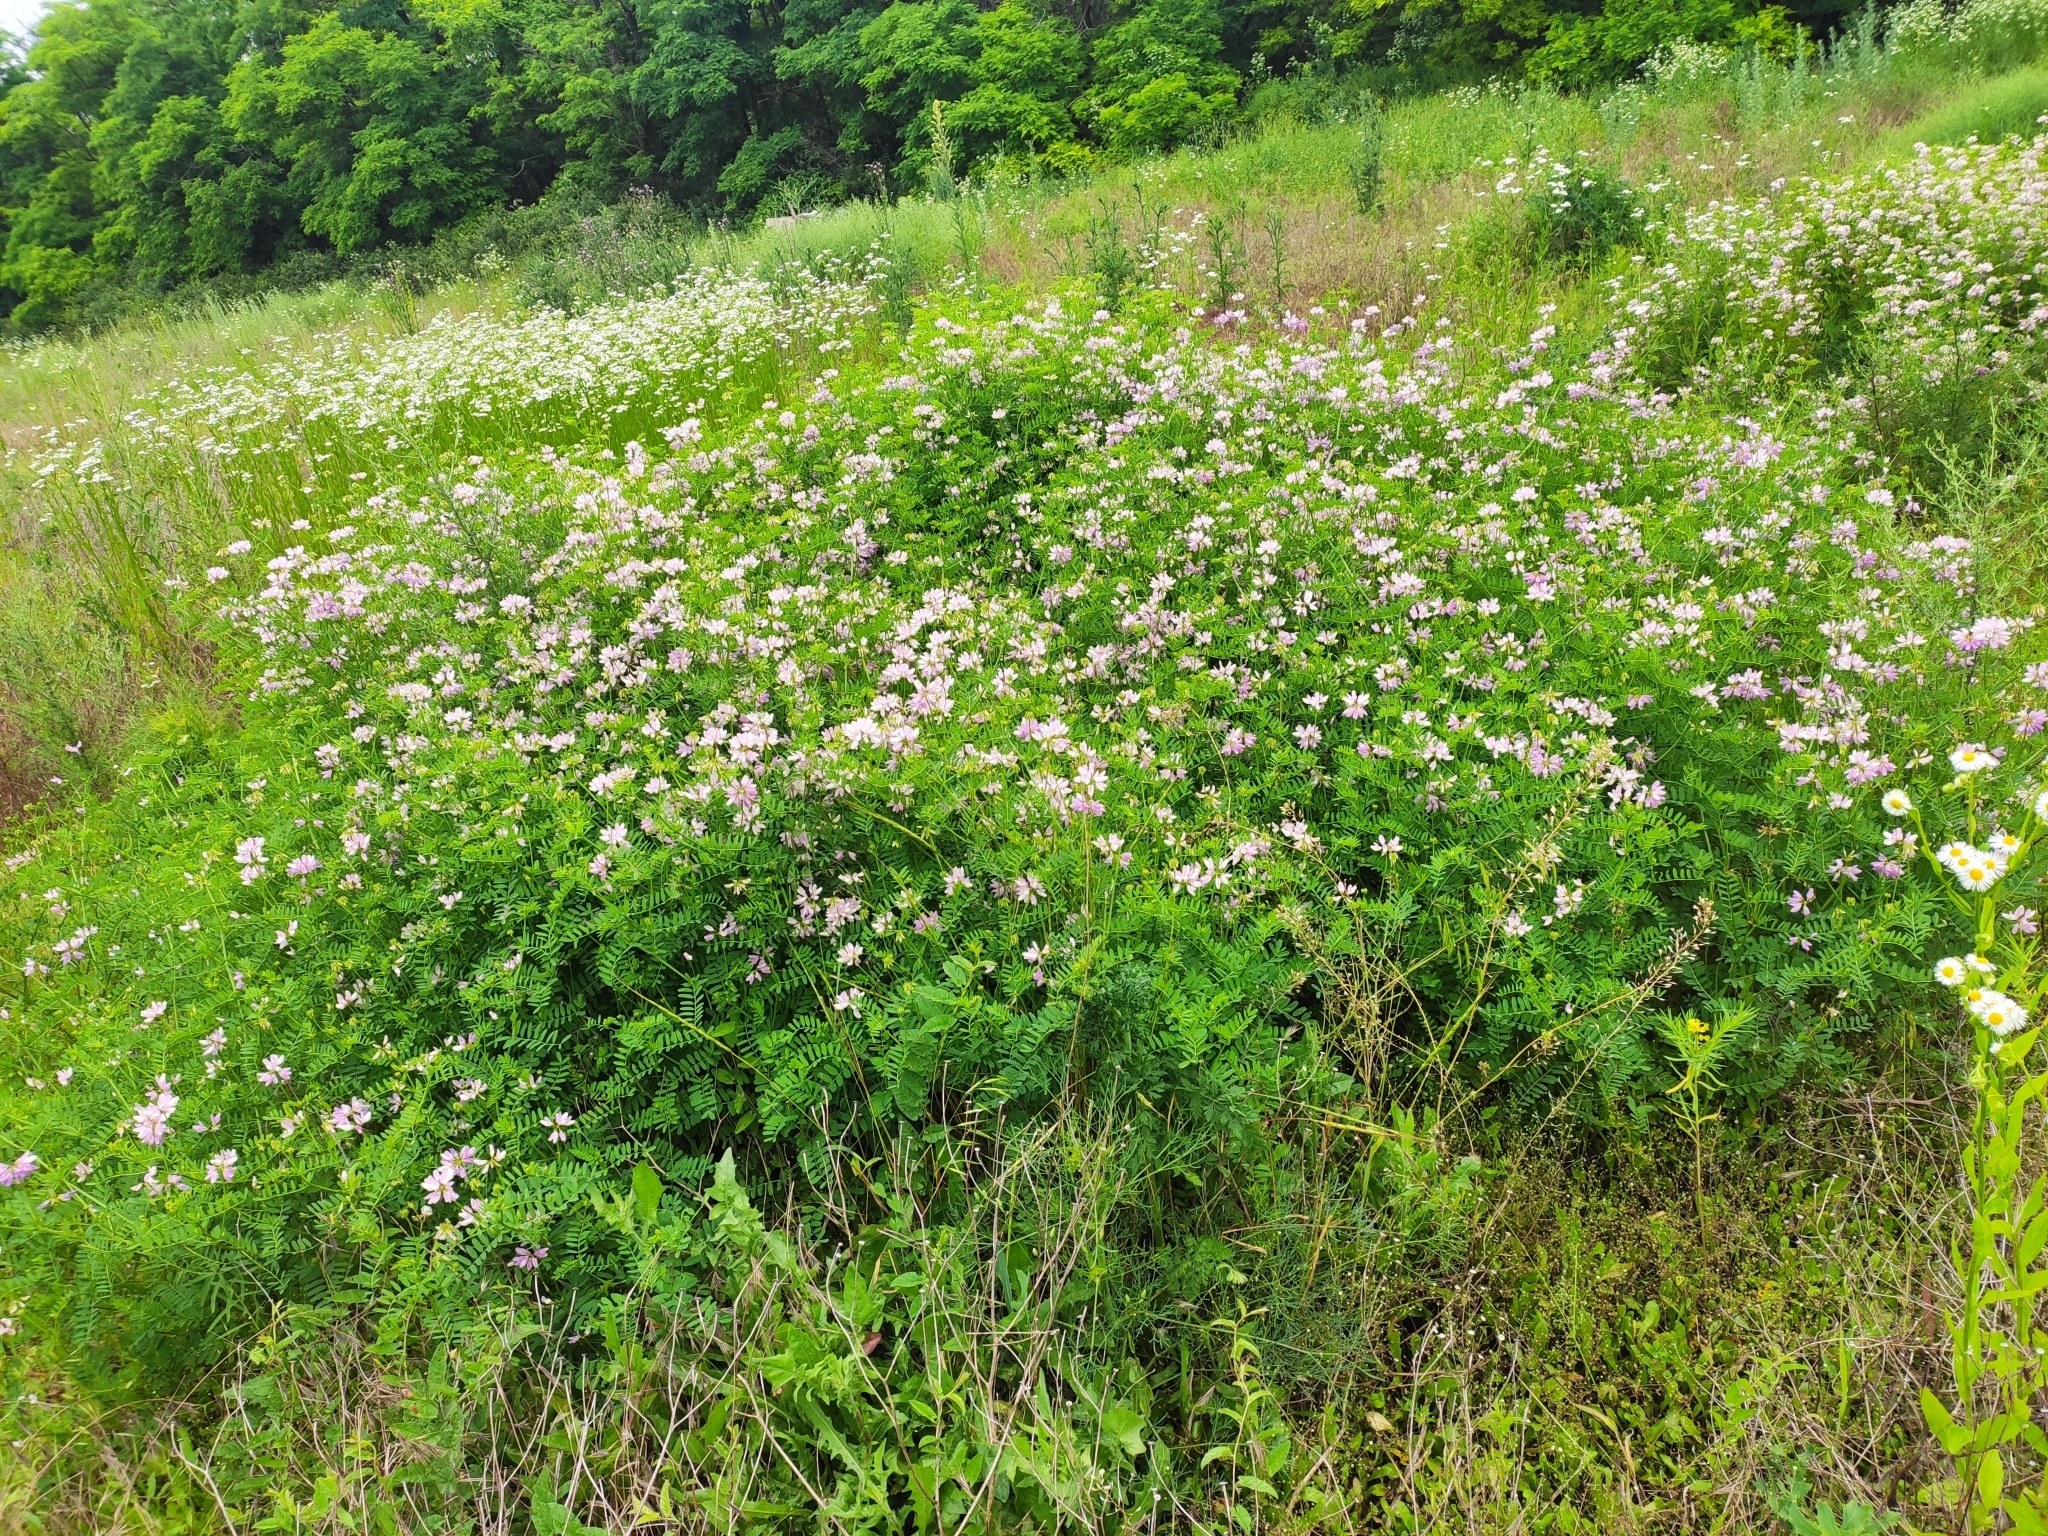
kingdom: Plantae
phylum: Tracheophyta
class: Magnoliopsida
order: Fabales
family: Fabaceae
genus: Coronilla
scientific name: Coronilla varia
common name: Crownvetch
